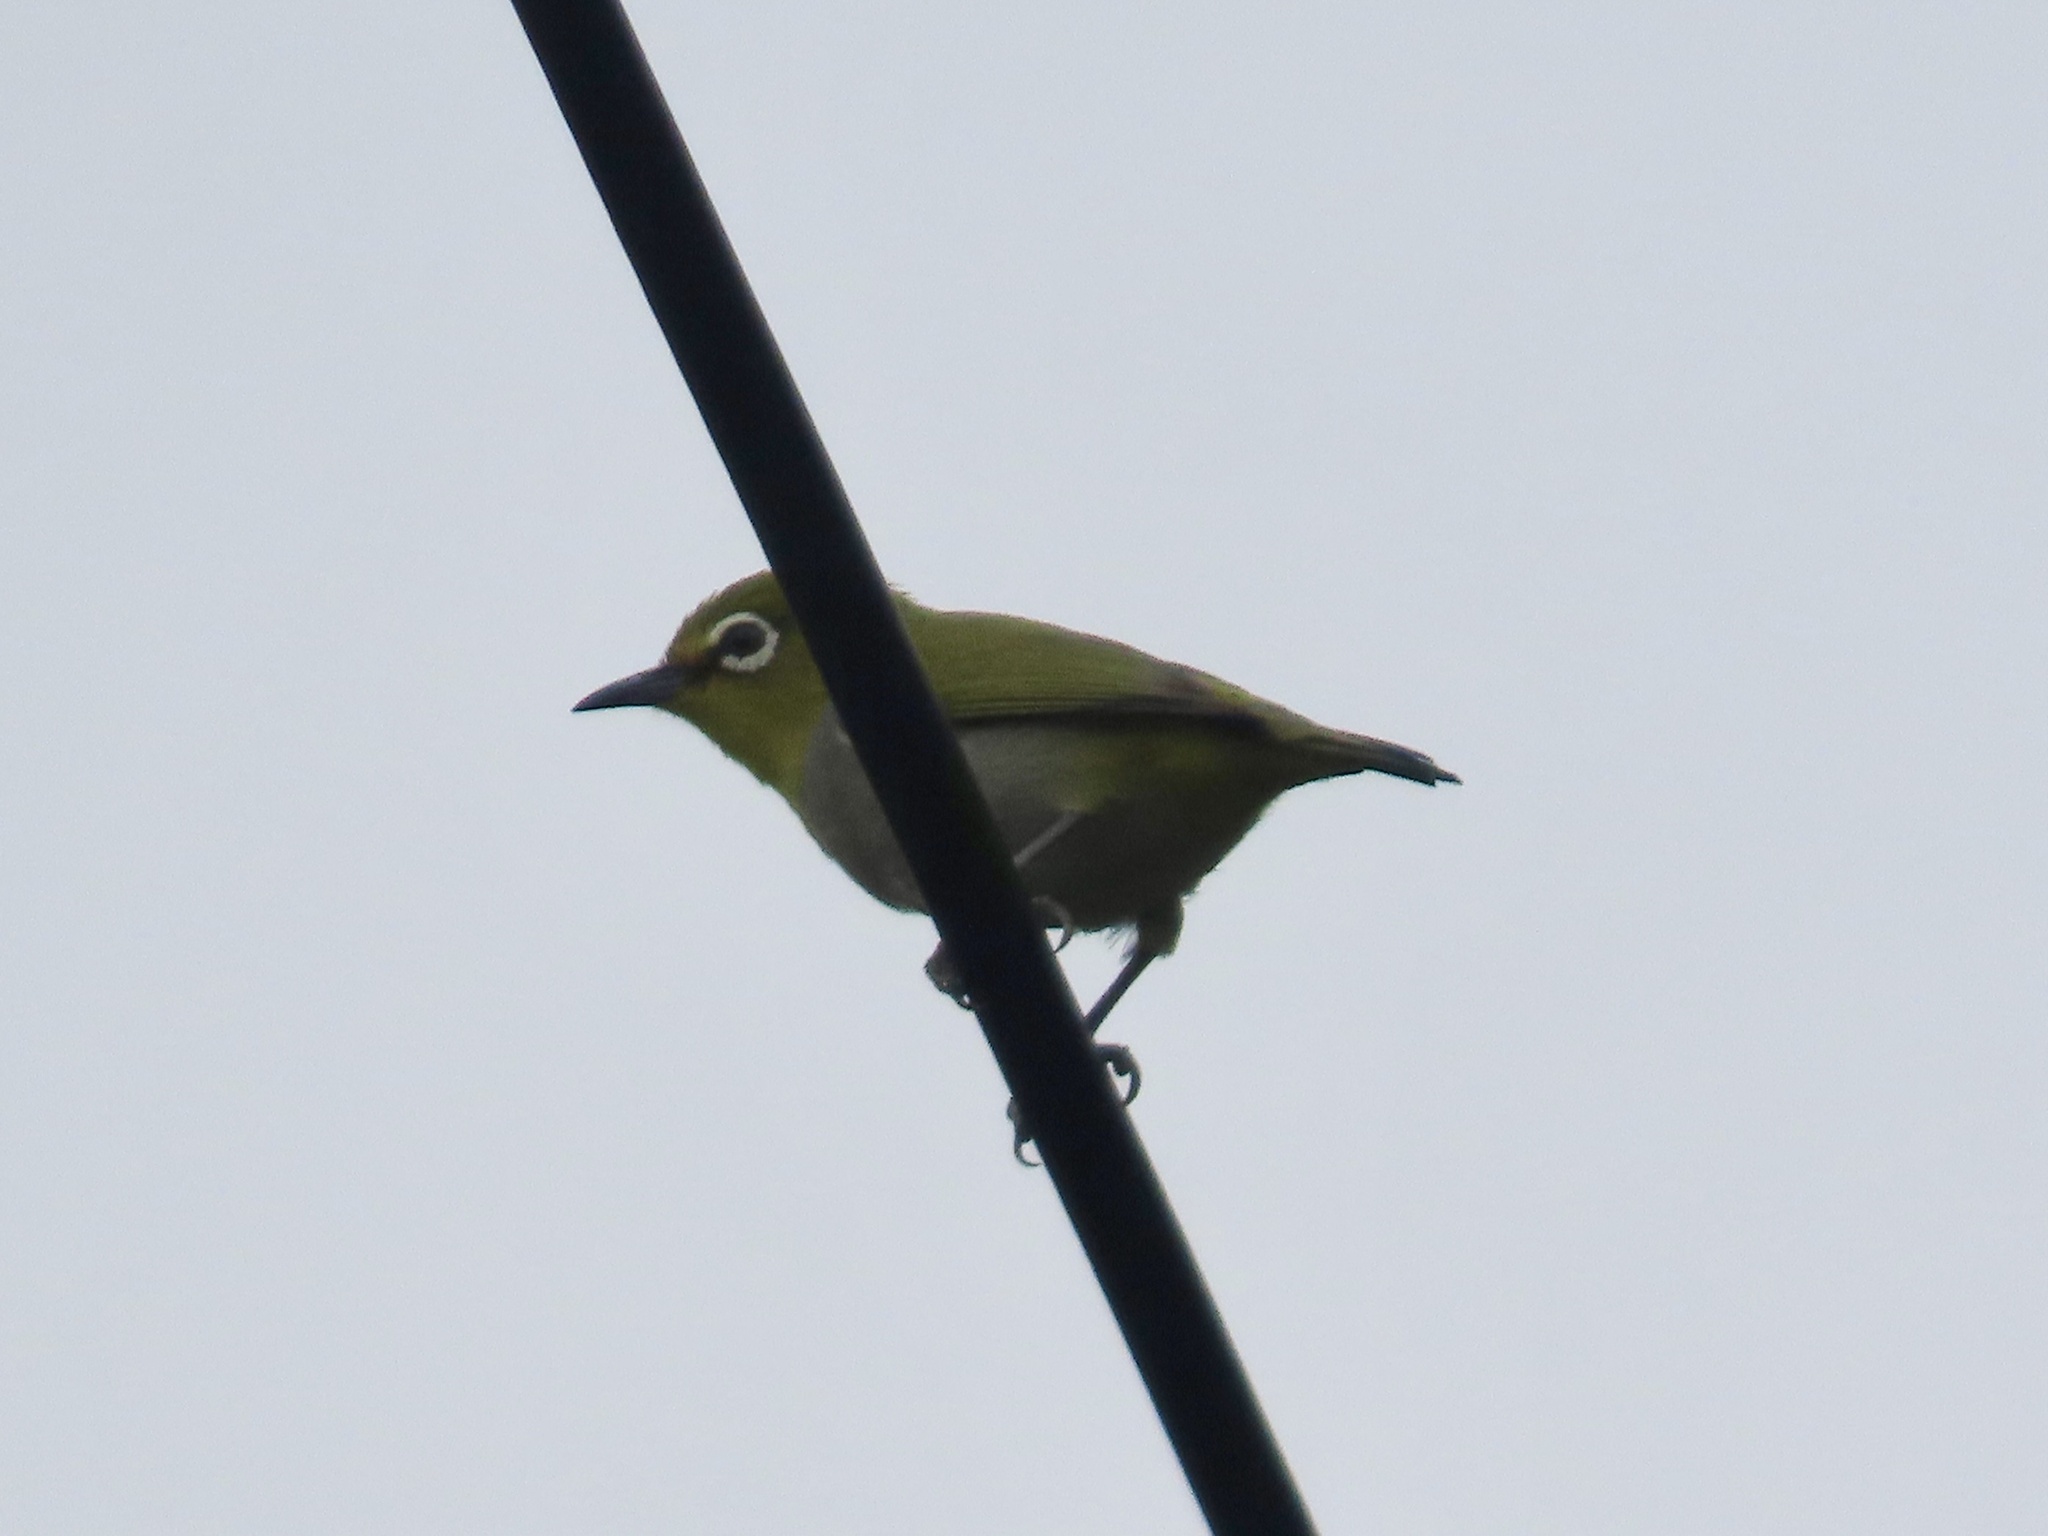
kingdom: Animalia
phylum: Chordata
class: Aves
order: Passeriformes
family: Zosteropidae
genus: Zosterops
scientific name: Zosterops simplex
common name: Swinhoe's white-eye
